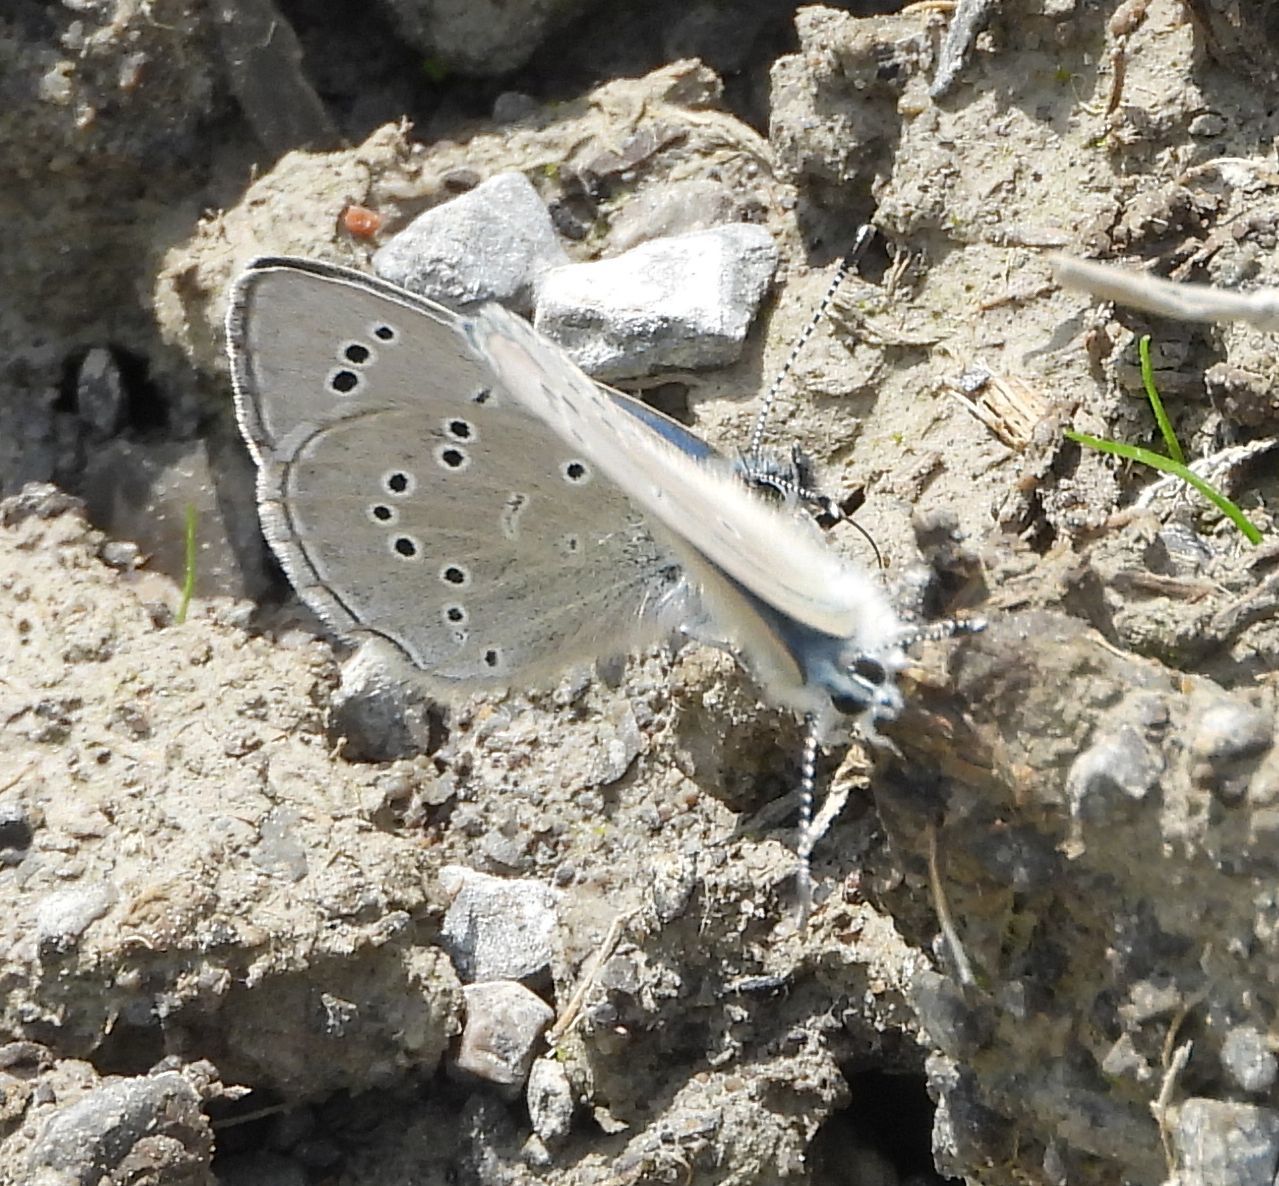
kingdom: Animalia
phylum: Arthropoda
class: Insecta
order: Lepidoptera
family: Lycaenidae
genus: Glaucopsyche
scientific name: Glaucopsyche lygdamus
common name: Silvery blue
